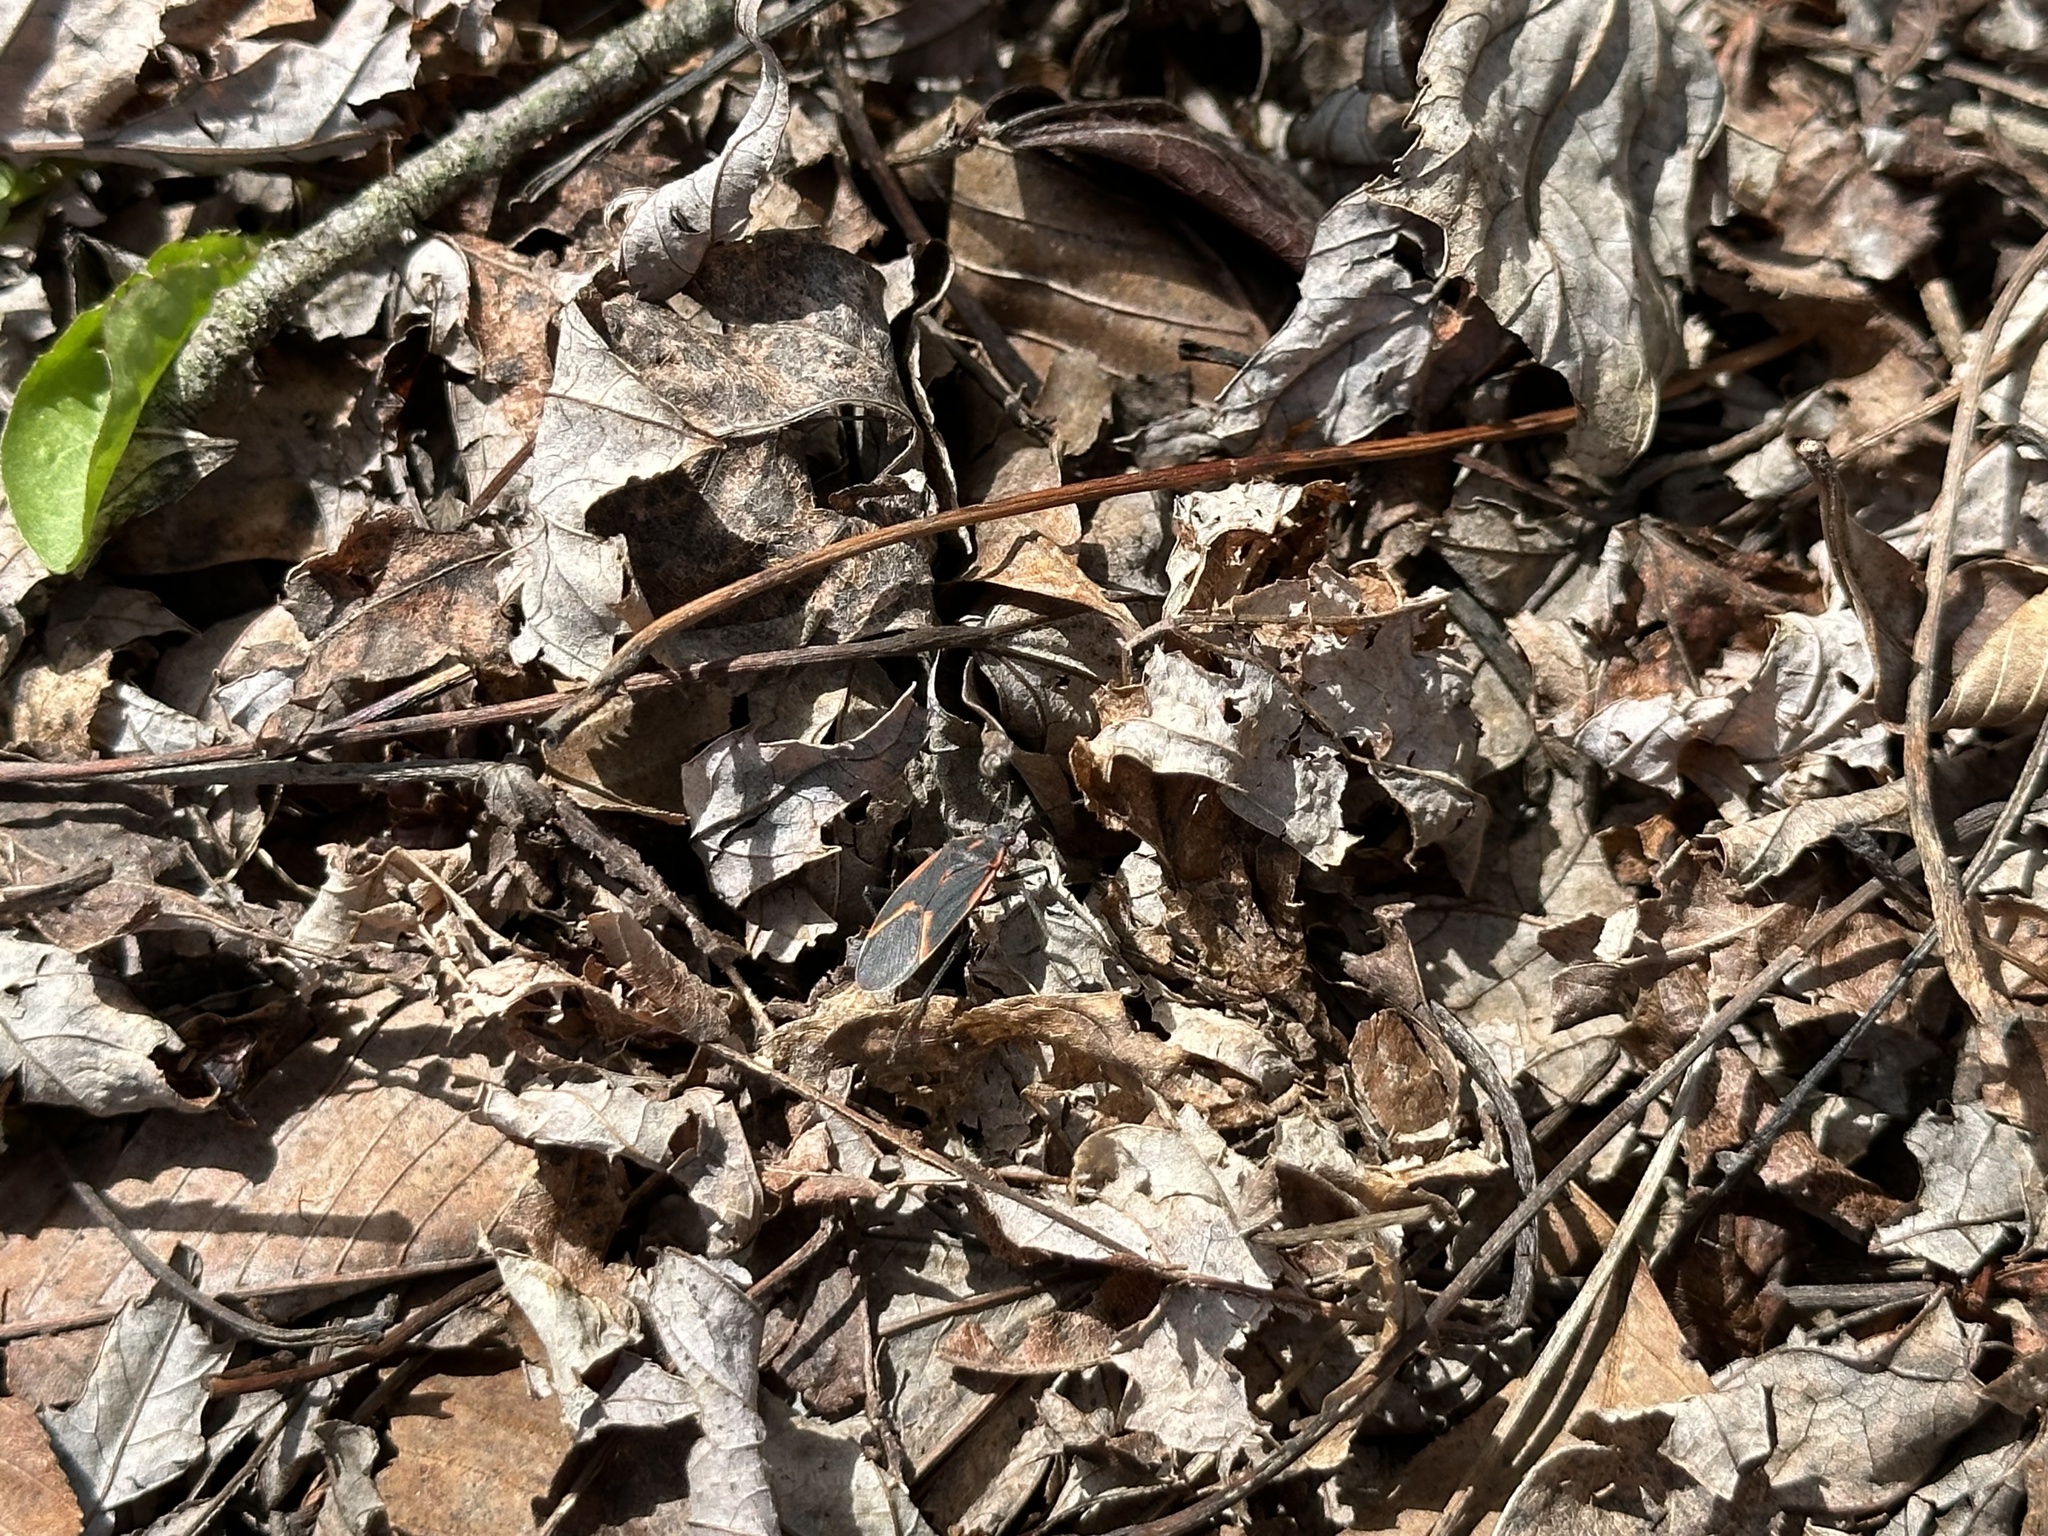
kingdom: Animalia
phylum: Arthropoda
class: Insecta
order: Hemiptera
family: Rhopalidae
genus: Boisea
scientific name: Boisea trivittata
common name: Boxelder bug
